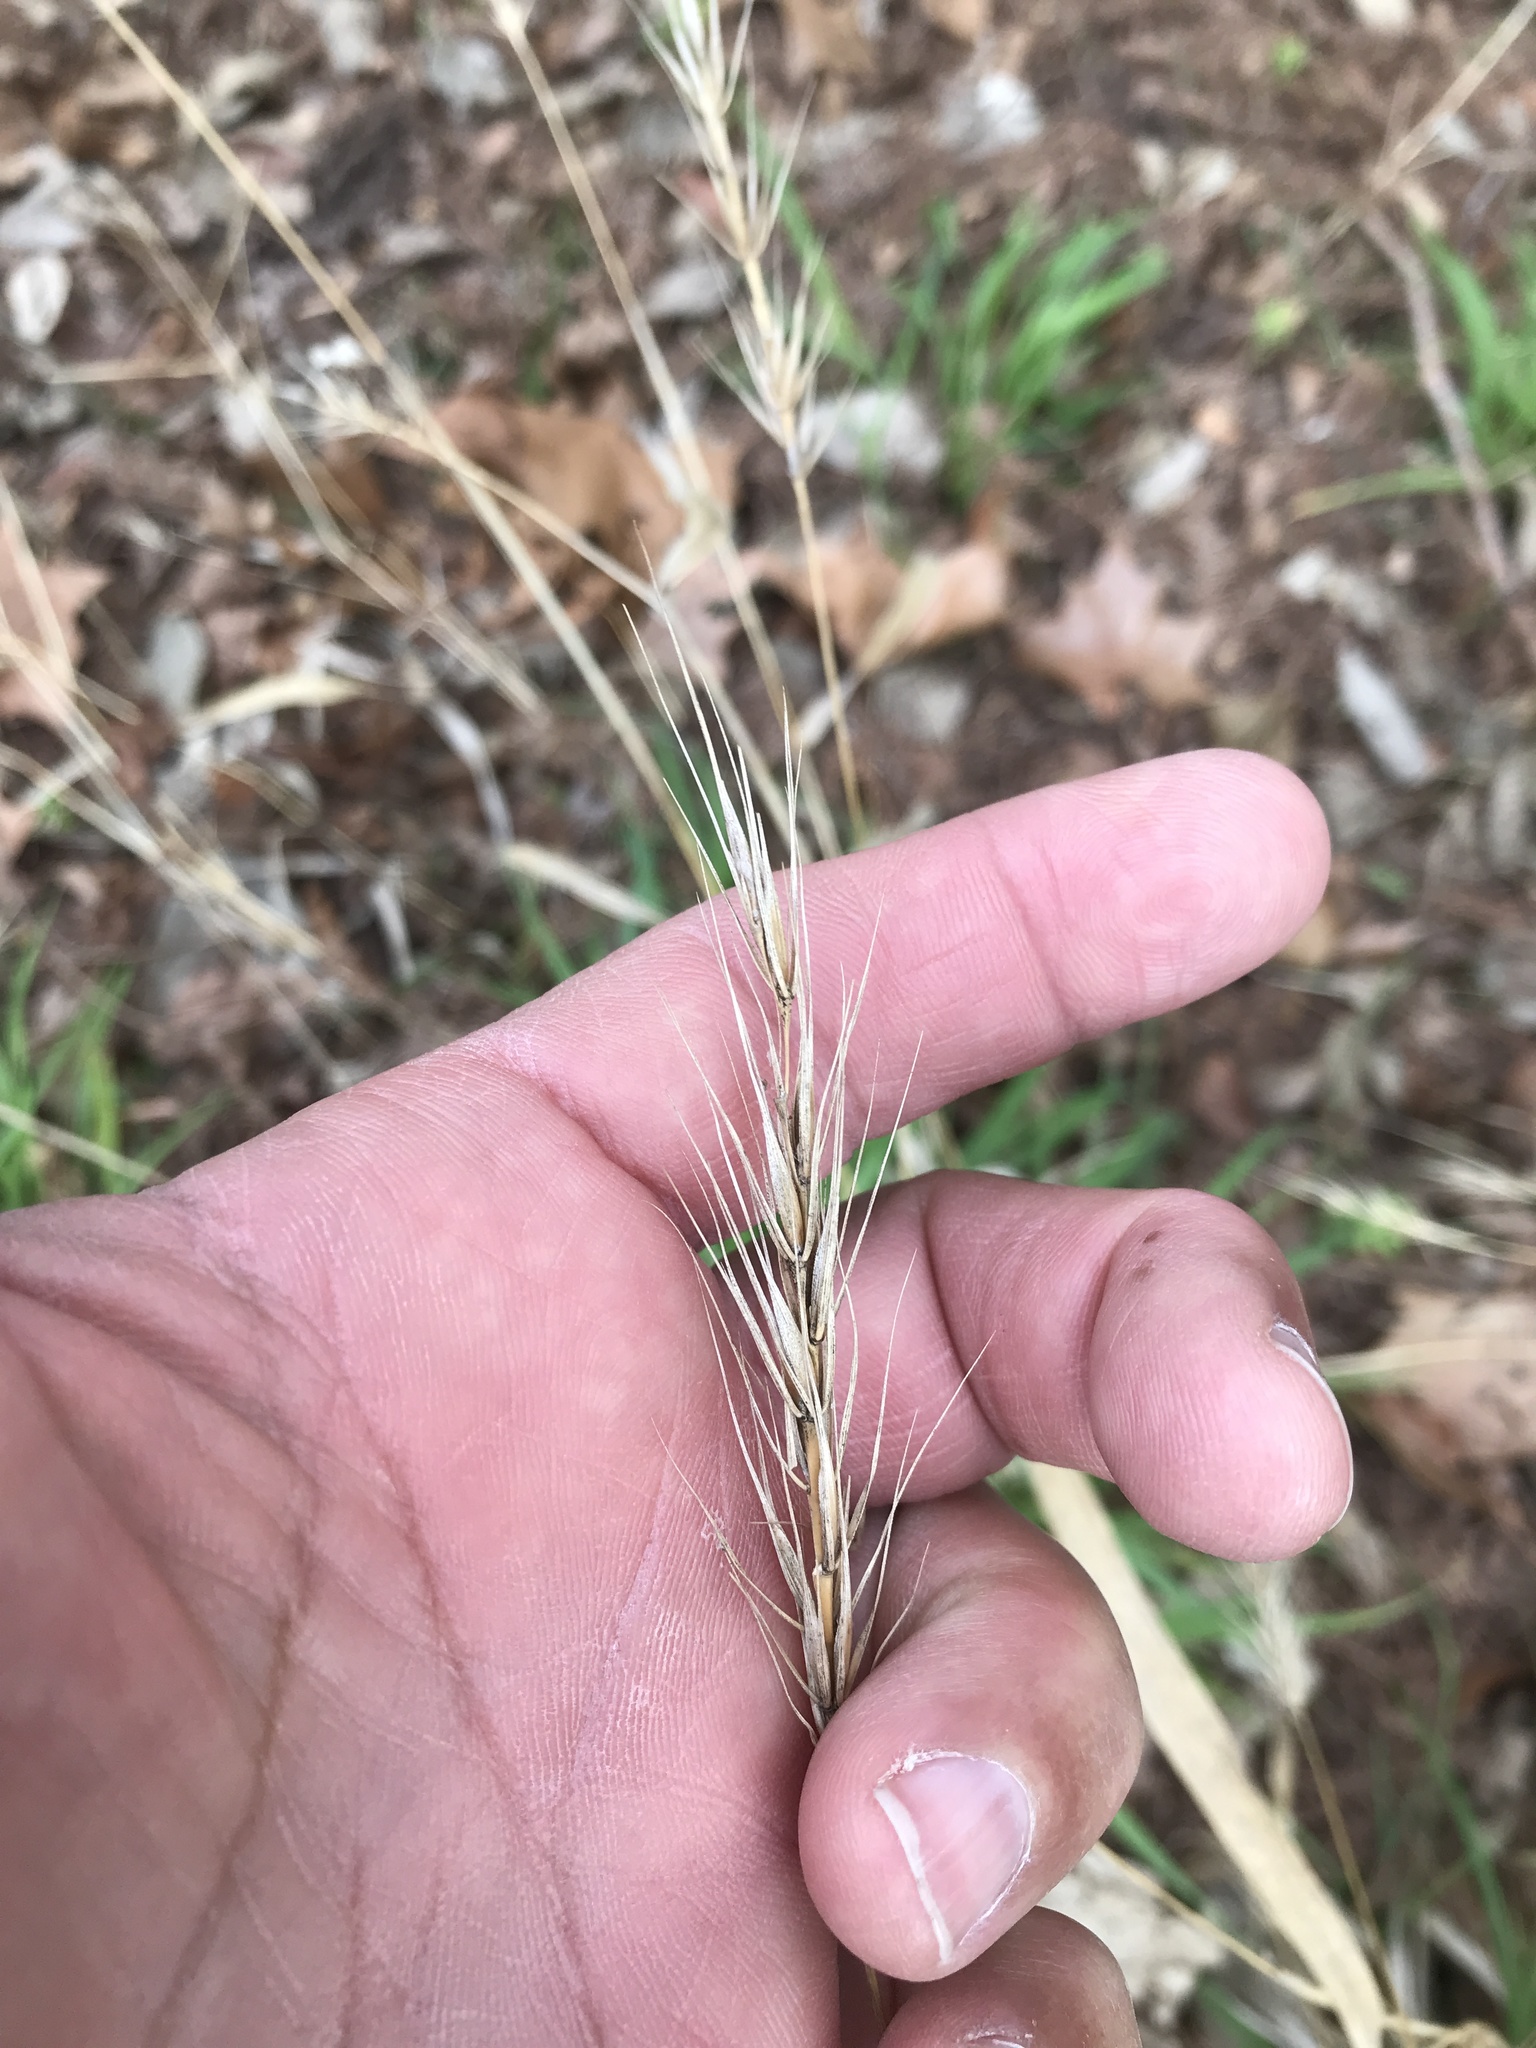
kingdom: Plantae
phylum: Tracheophyta
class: Liliopsida
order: Poales
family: Poaceae
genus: Elymus
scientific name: Elymus virginicus
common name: Common eastern wildrye
